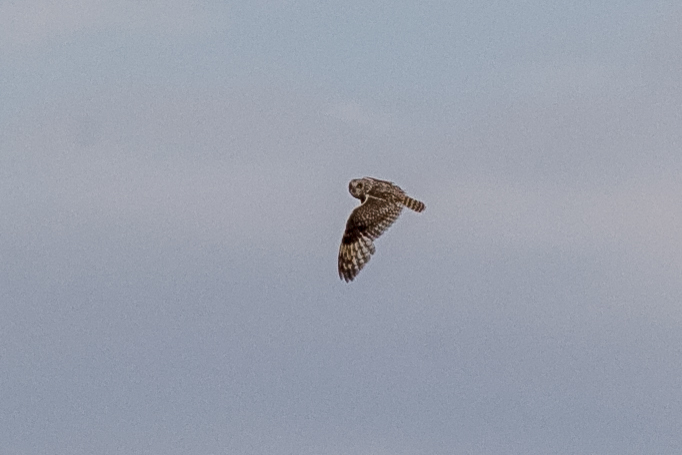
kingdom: Animalia
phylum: Chordata
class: Aves
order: Strigiformes
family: Strigidae
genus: Asio
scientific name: Asio flammeus
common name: Short-eared owl
